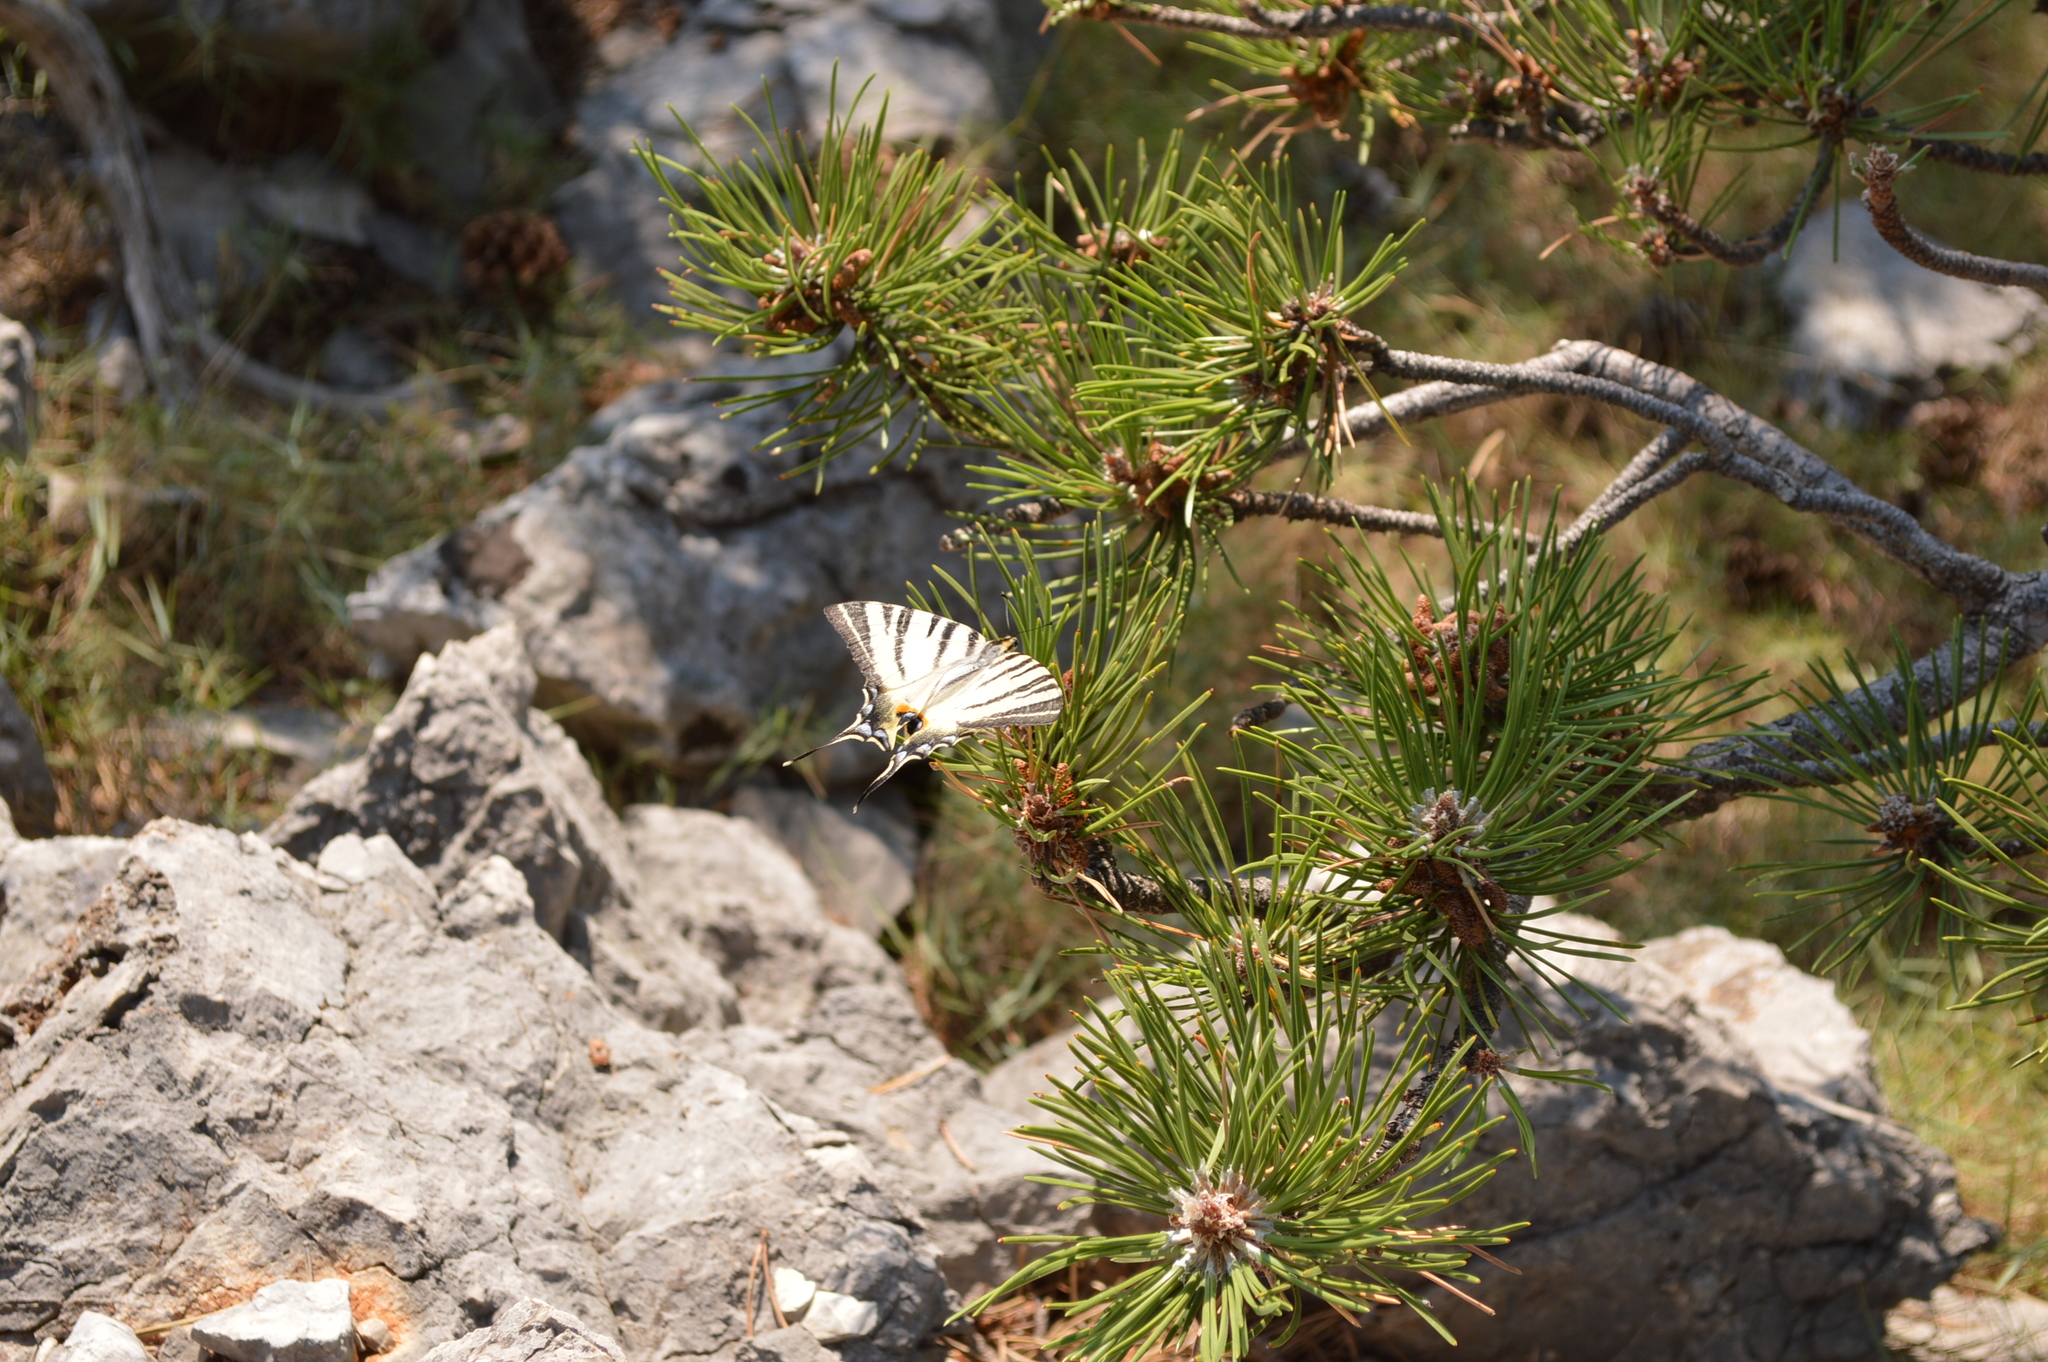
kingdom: Animalia
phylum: Arthropoda
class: Insecta
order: Lepidoptera
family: Papilionidae
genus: Iphiclides
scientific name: Iphiclides podalirius
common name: Scarce swallowtail
